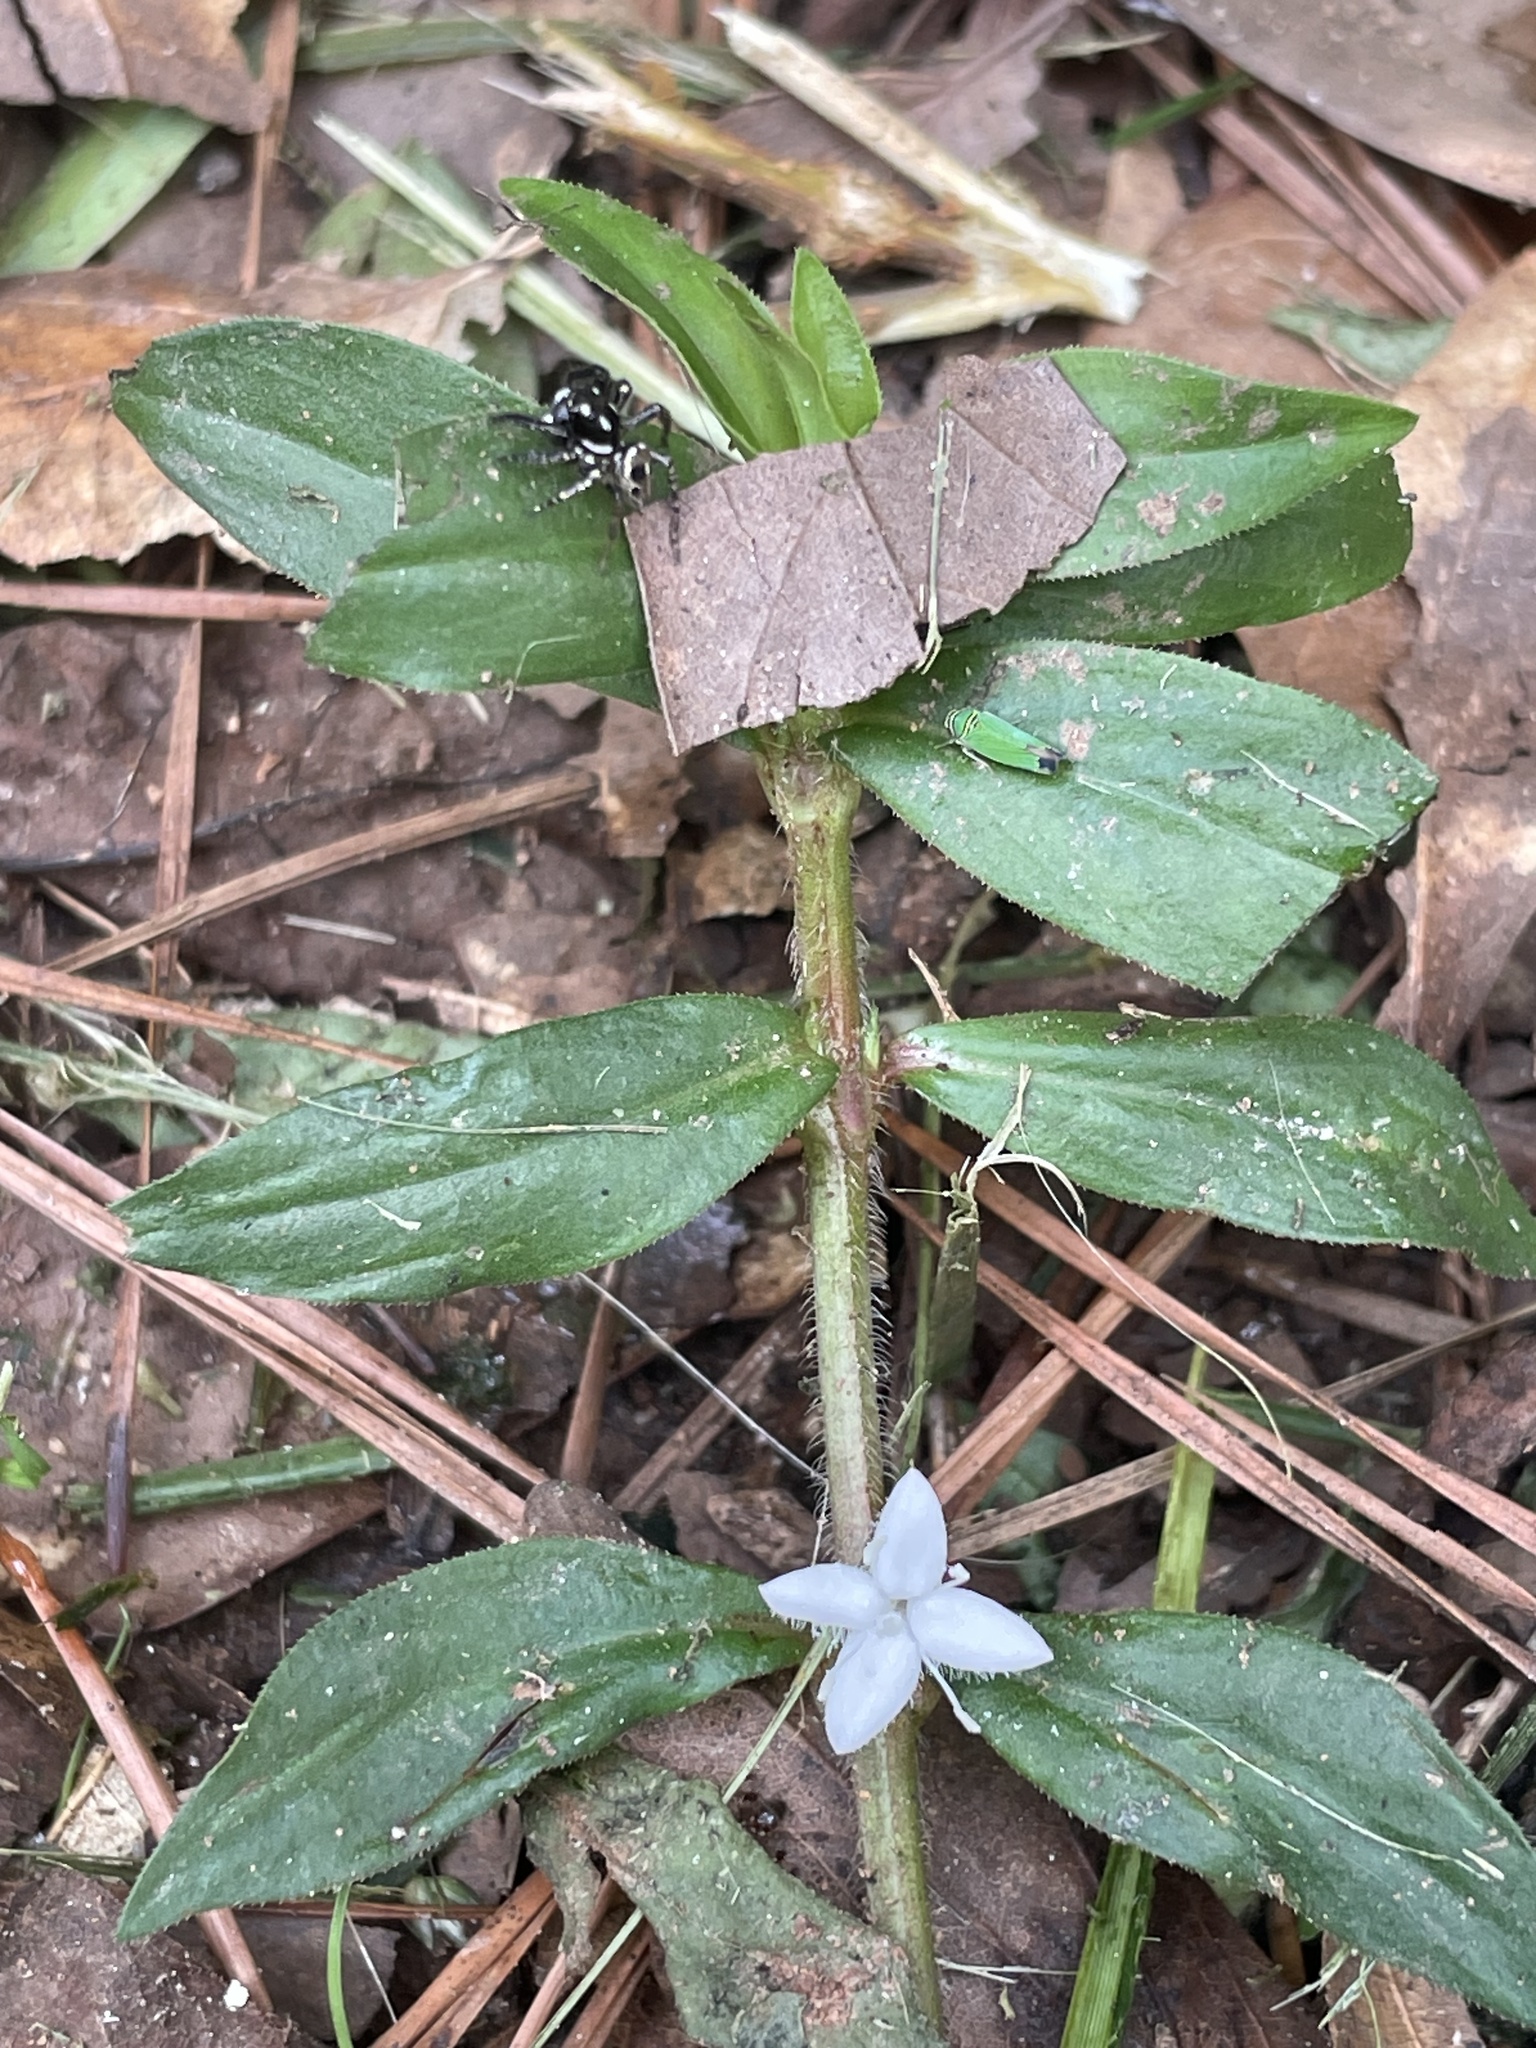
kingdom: Plantae
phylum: Tracheophyta
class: Magnoliopsida
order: Gentianales
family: Rubiaceae
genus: Diodia
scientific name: Diodia virginiana
